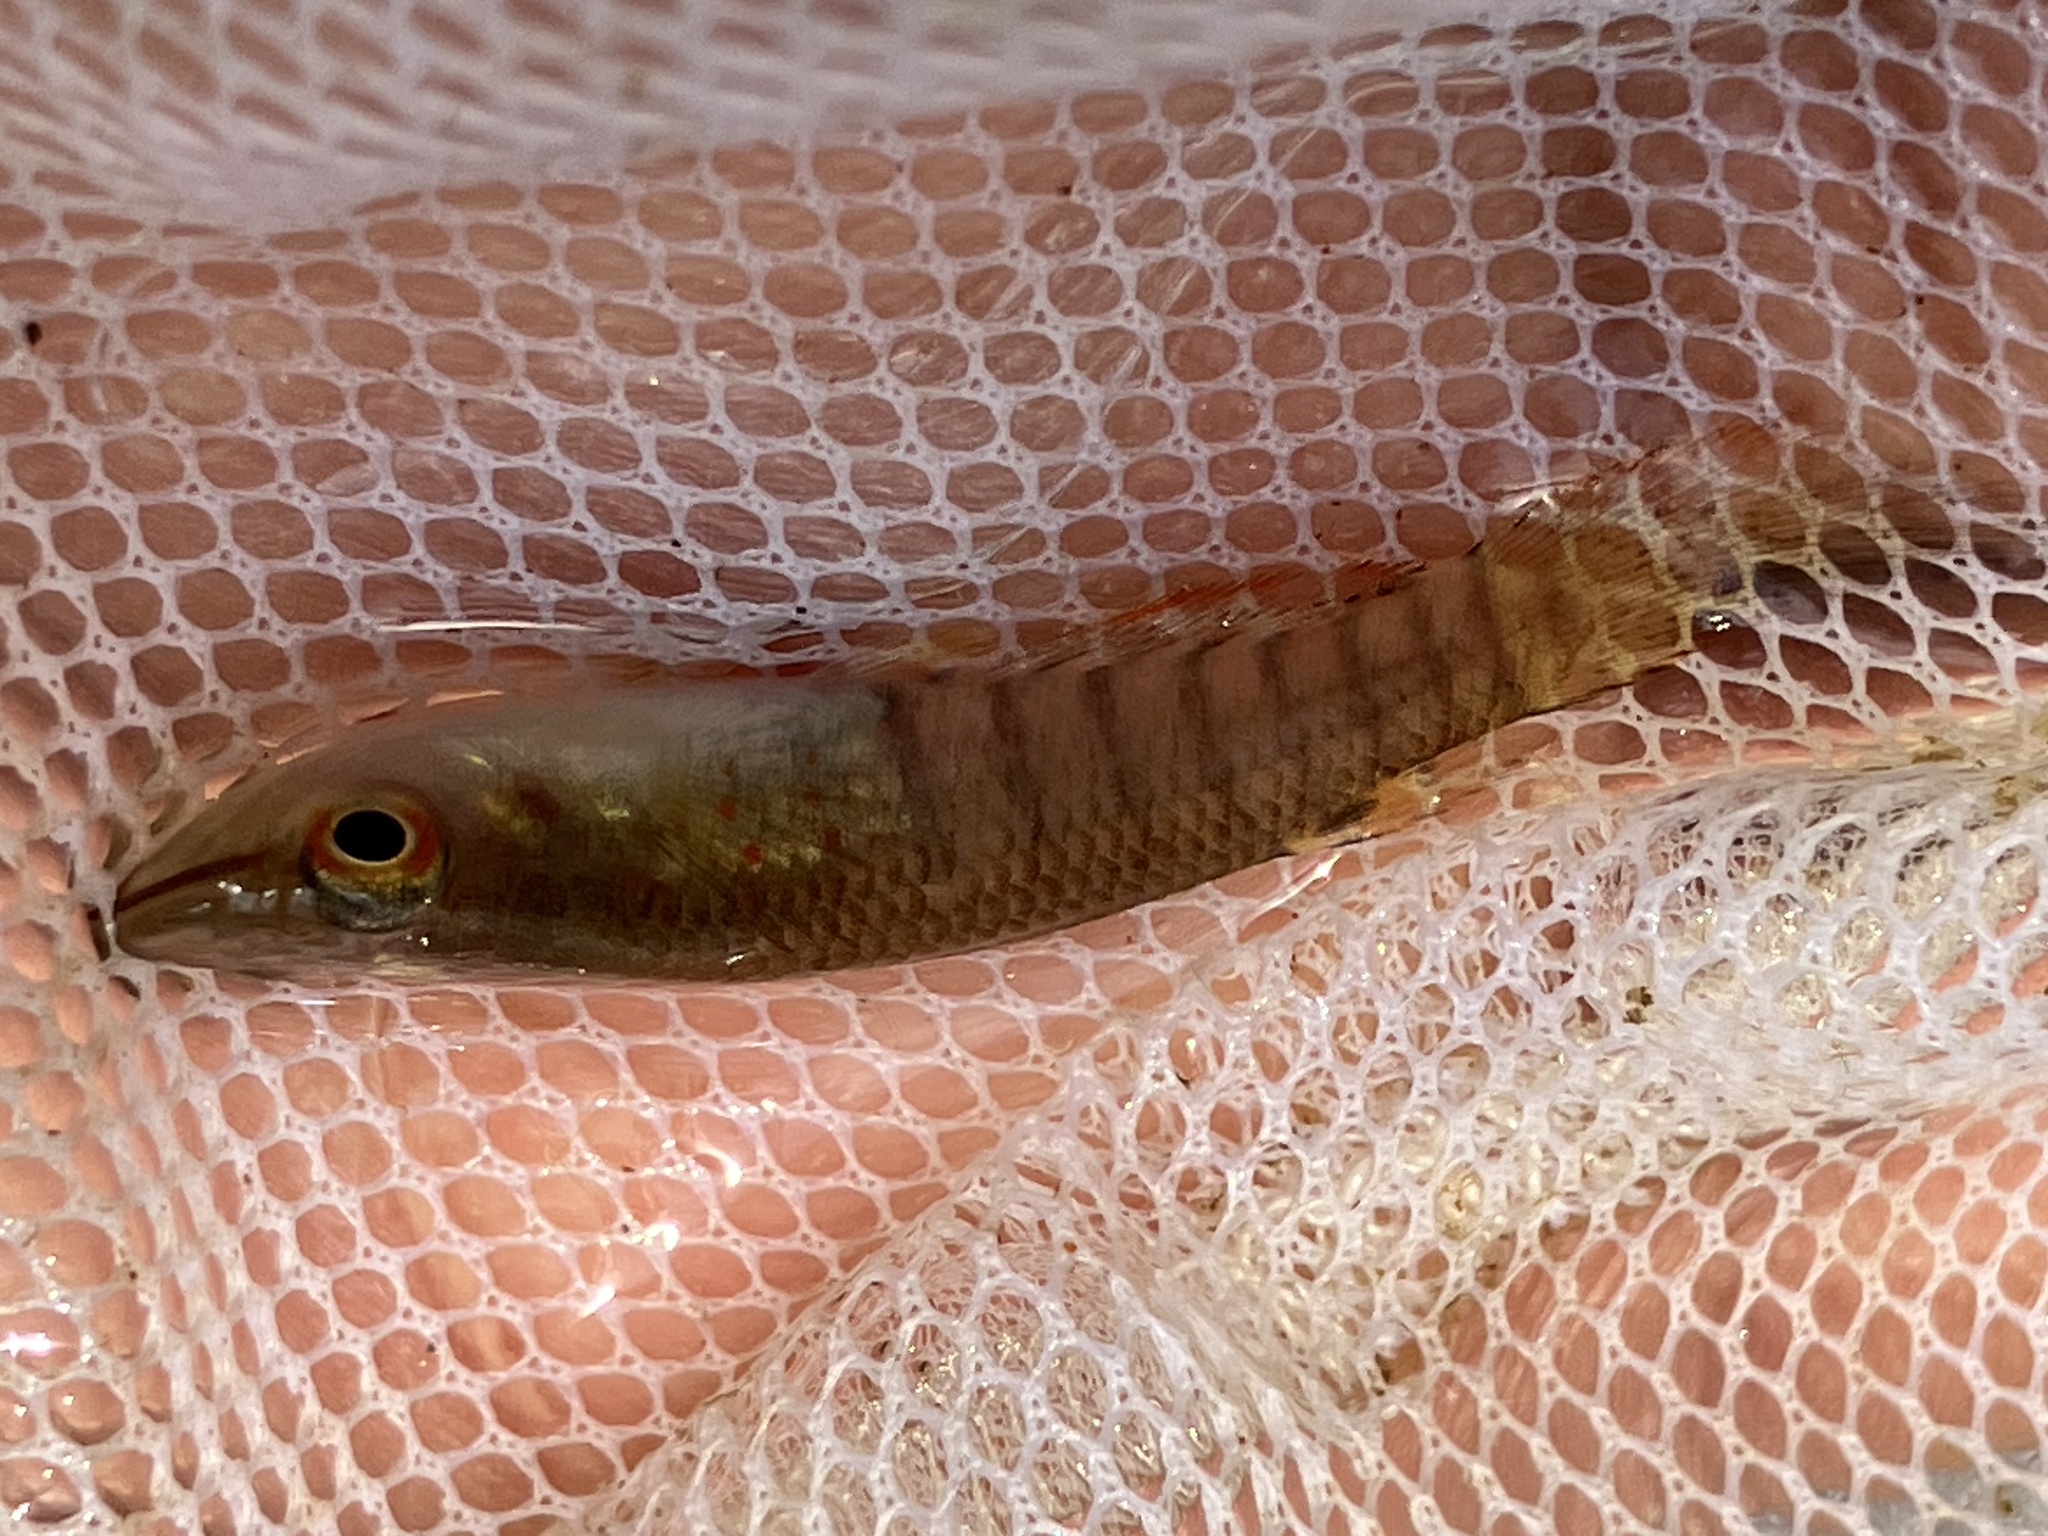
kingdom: Animalia
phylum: Chordata
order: Cyprinodontiformes
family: Aplocheilidae
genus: Aplocheilus
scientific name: Aplocheilus lineatus
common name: Striped panchax
